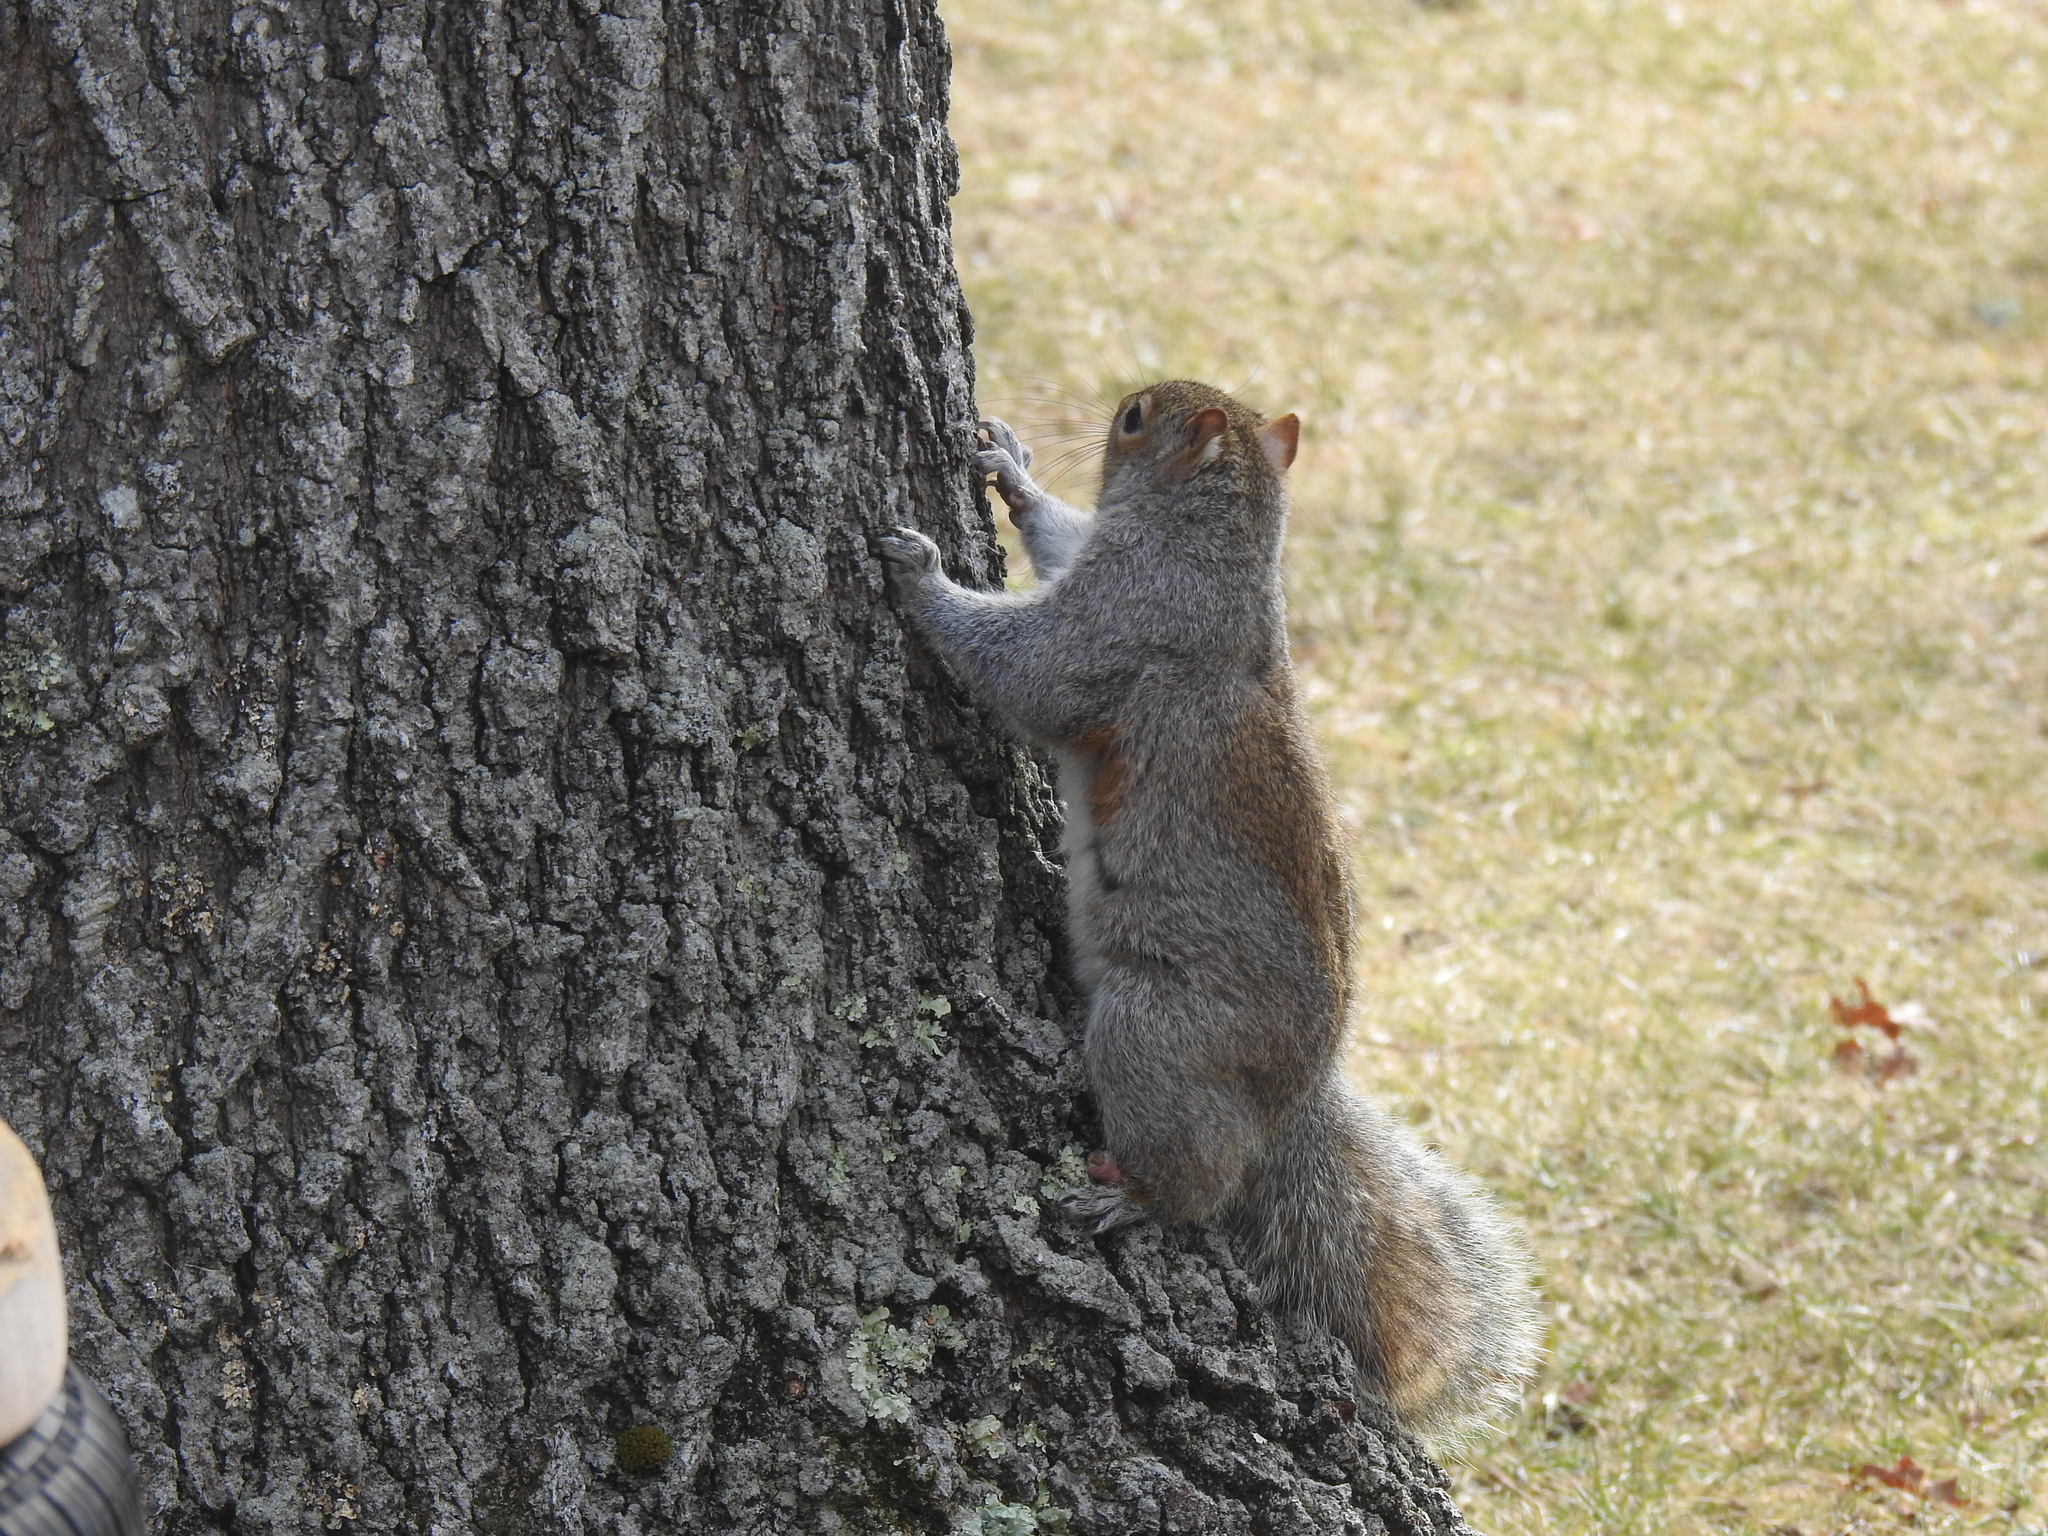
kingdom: Animalia
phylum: Chordata
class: Mammalia
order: Rodentia
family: Sciuridae
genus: Sciurus
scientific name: Sciurus carolinensis
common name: Eastern gray squirrel
